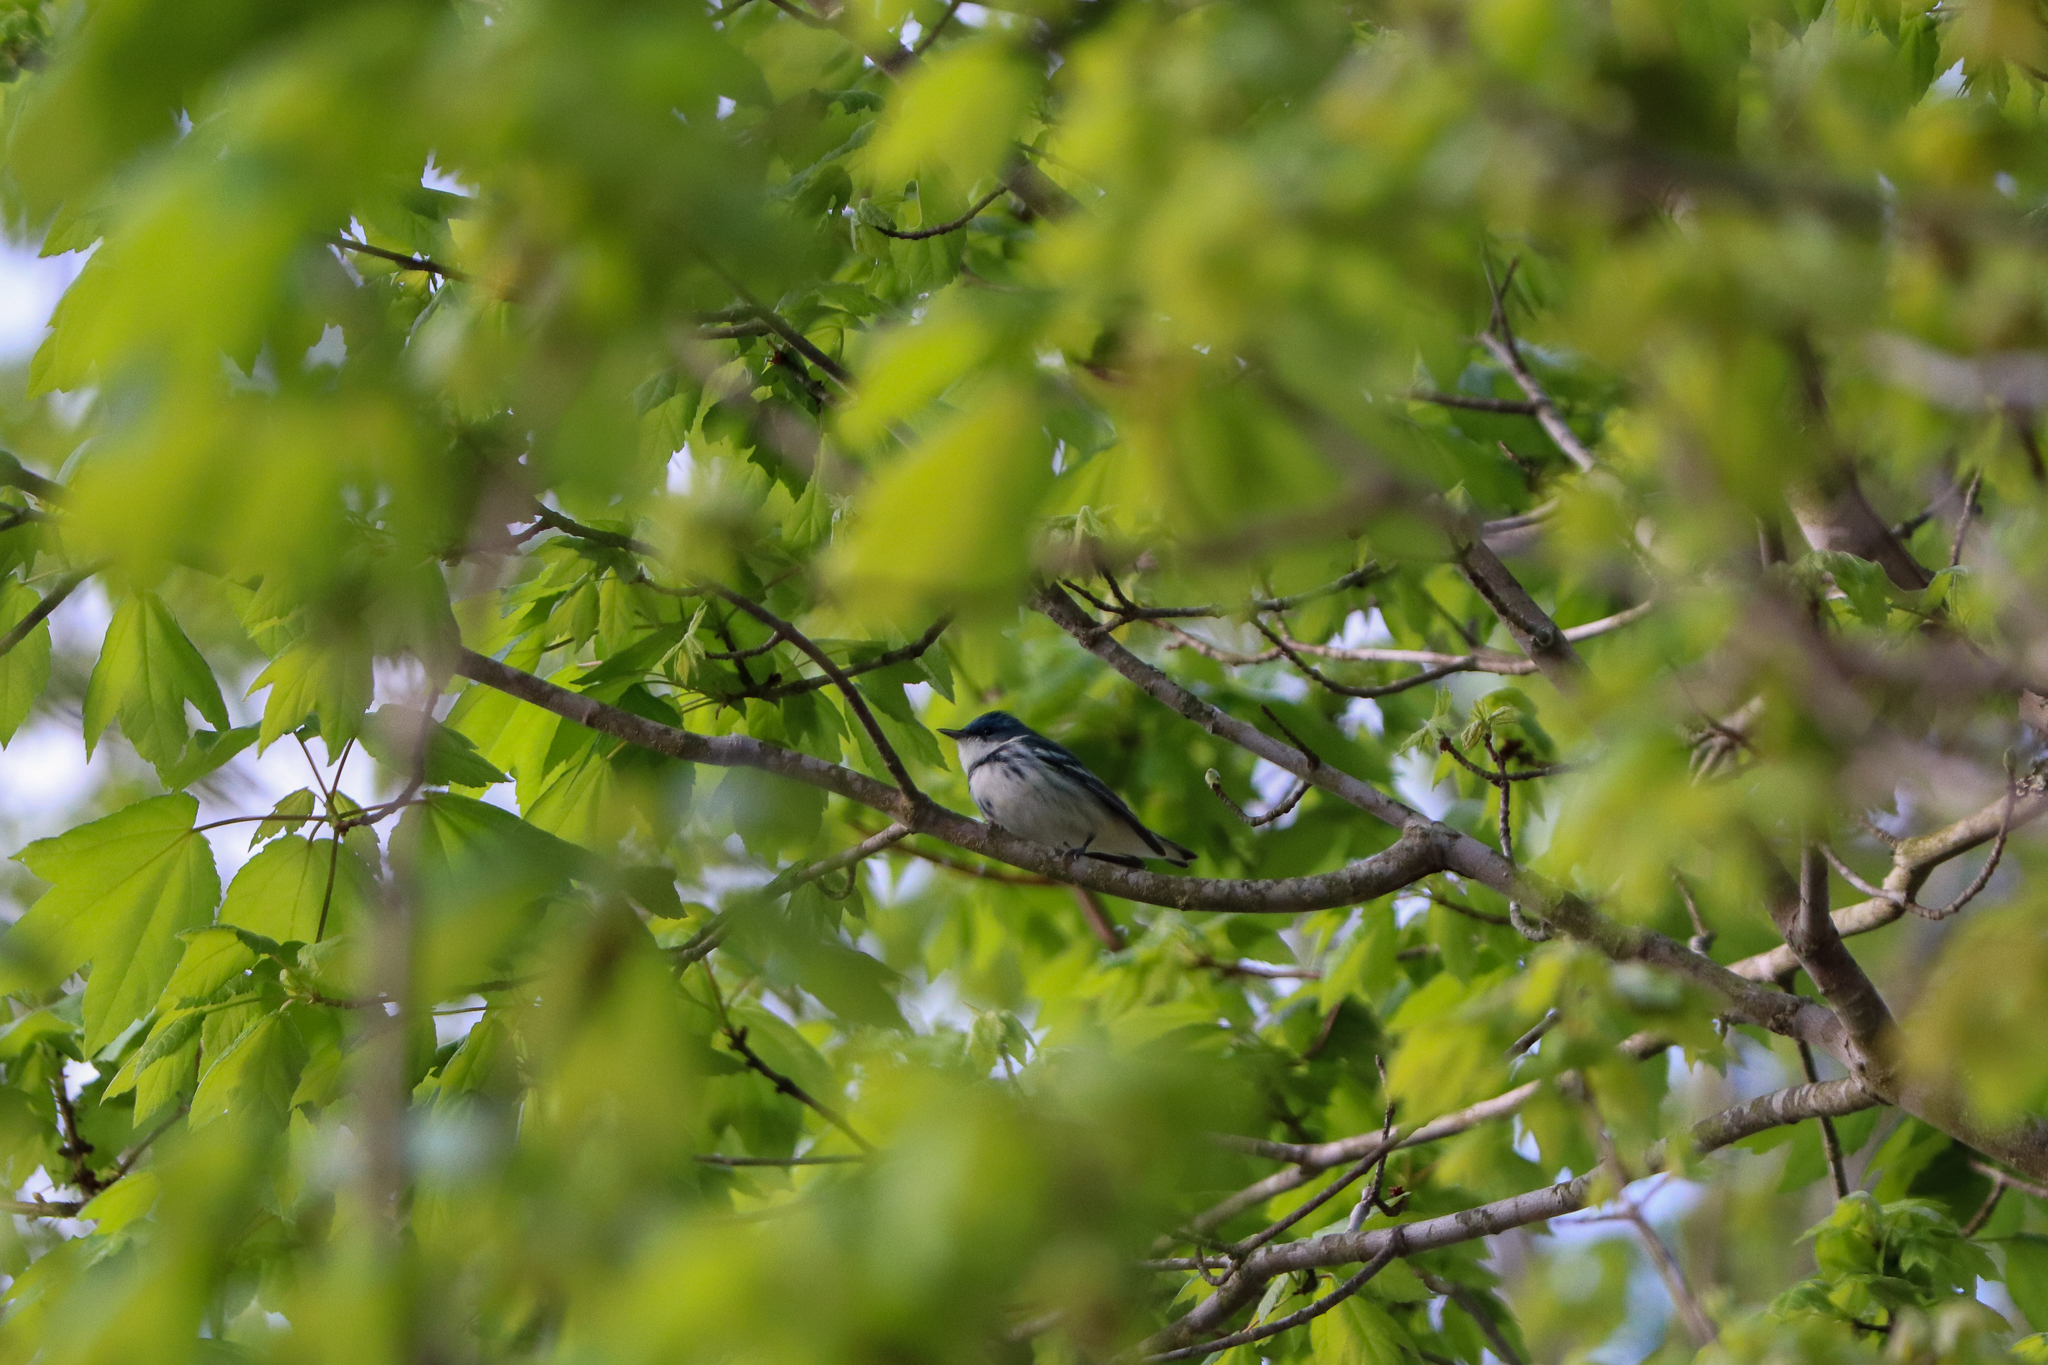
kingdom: Animalia
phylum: Chordata
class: Aves
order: Passeriformes
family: Parulidae
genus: Setophaga
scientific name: Setophaga cerulea
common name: Cerulean warbler
